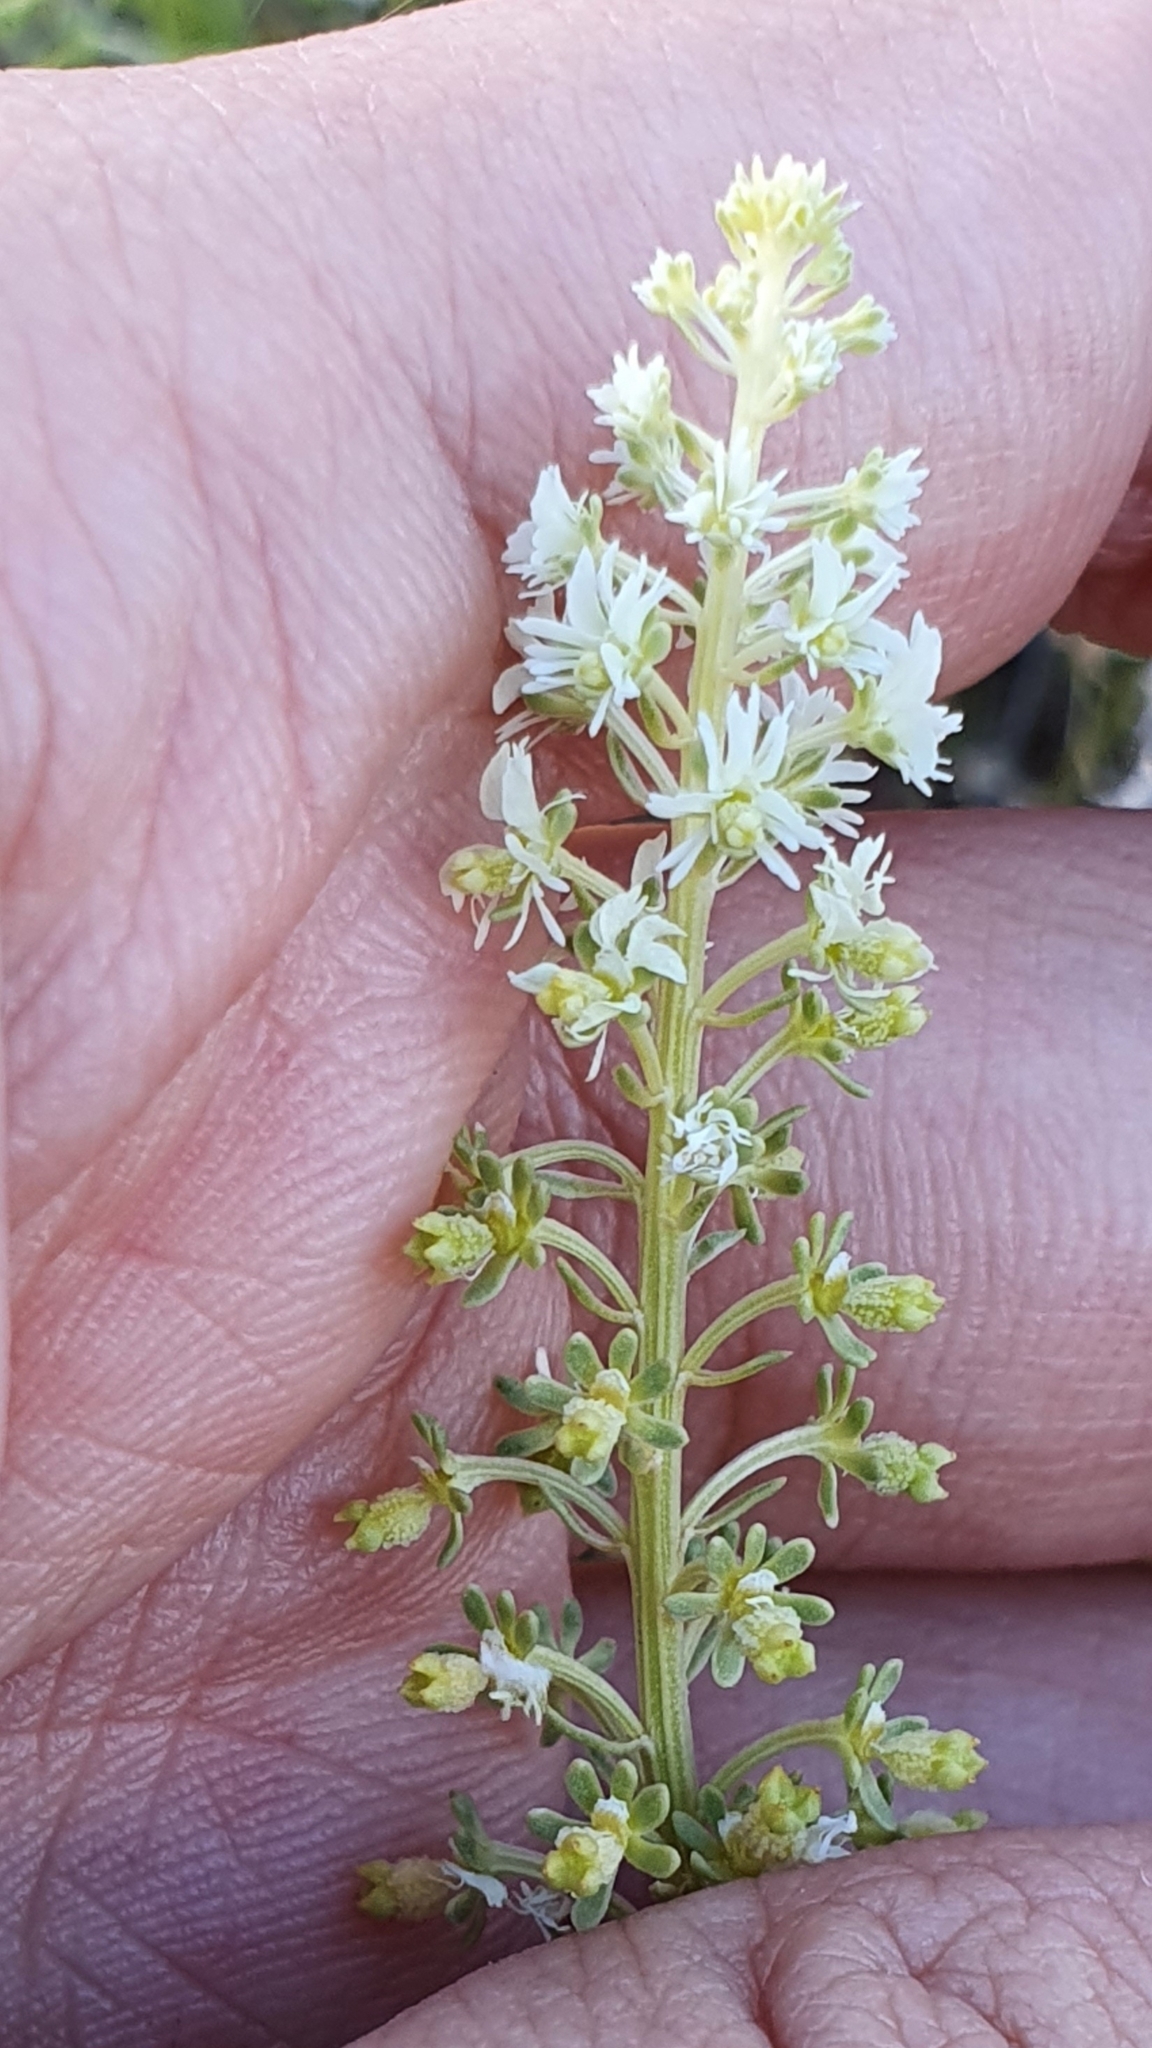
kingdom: Plantae
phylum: Tracheophyta
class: Magnoliopsida
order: Brassicales
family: Resedaceae
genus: Reseda
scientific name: Reseda duriaeana
